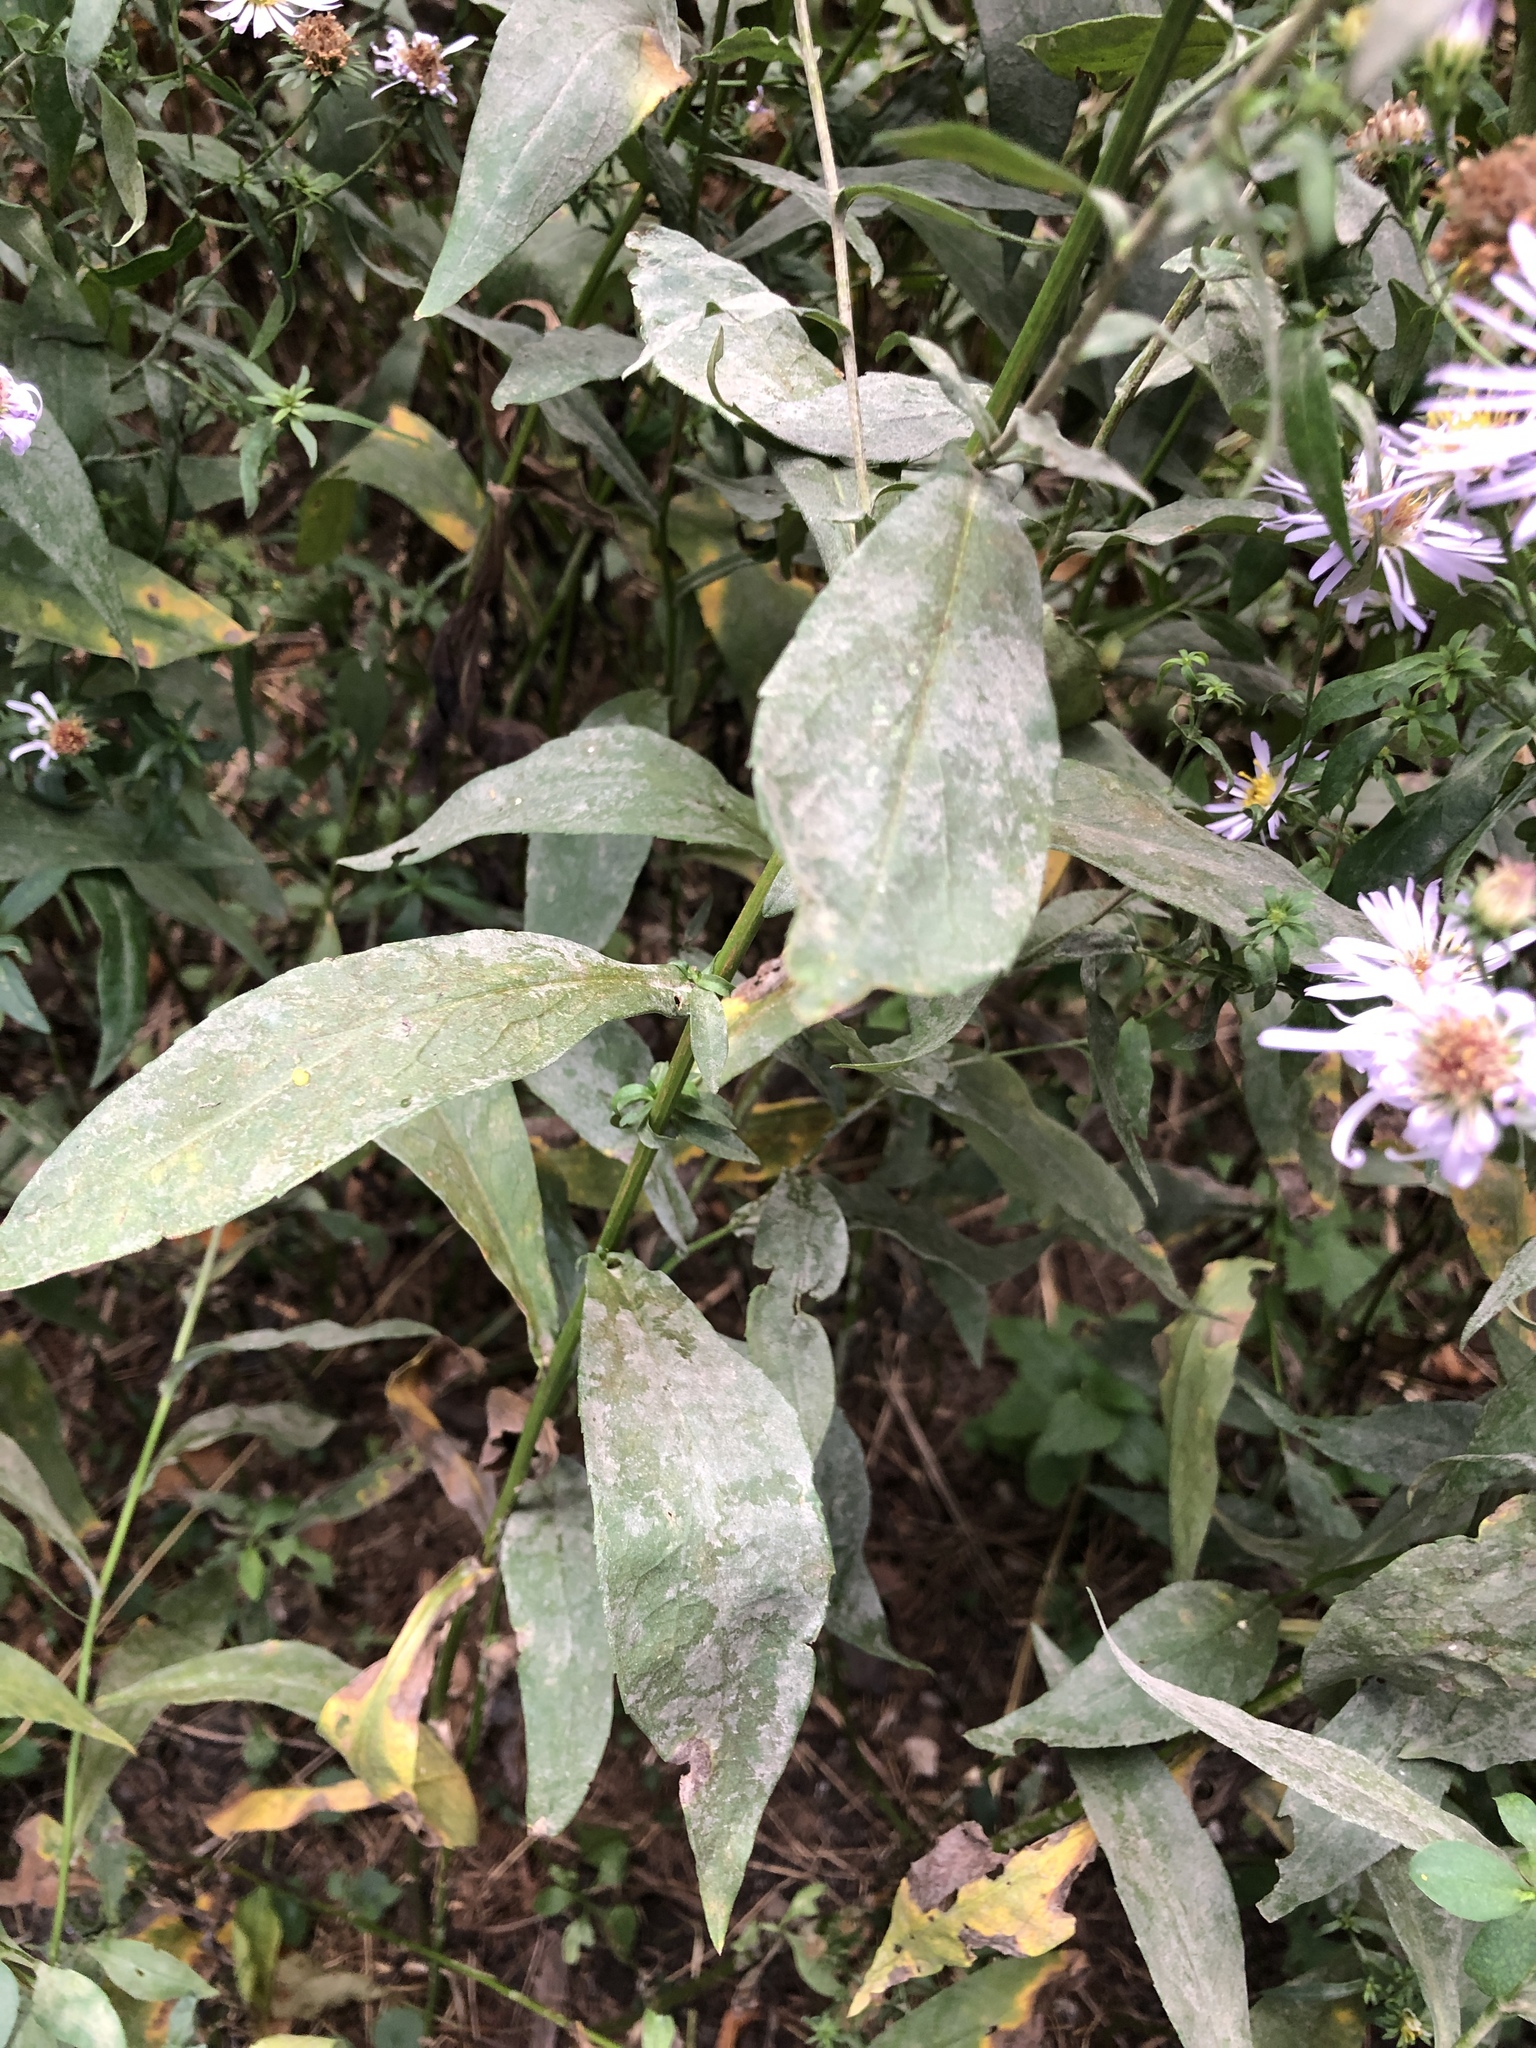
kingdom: Plantae
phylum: Tracheophyta
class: Magnoliopsida
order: Asterales
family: Asteraceae
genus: Symphyotrichum
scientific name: Symphyotrichum novi-belgii
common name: Michaelmas daisy
